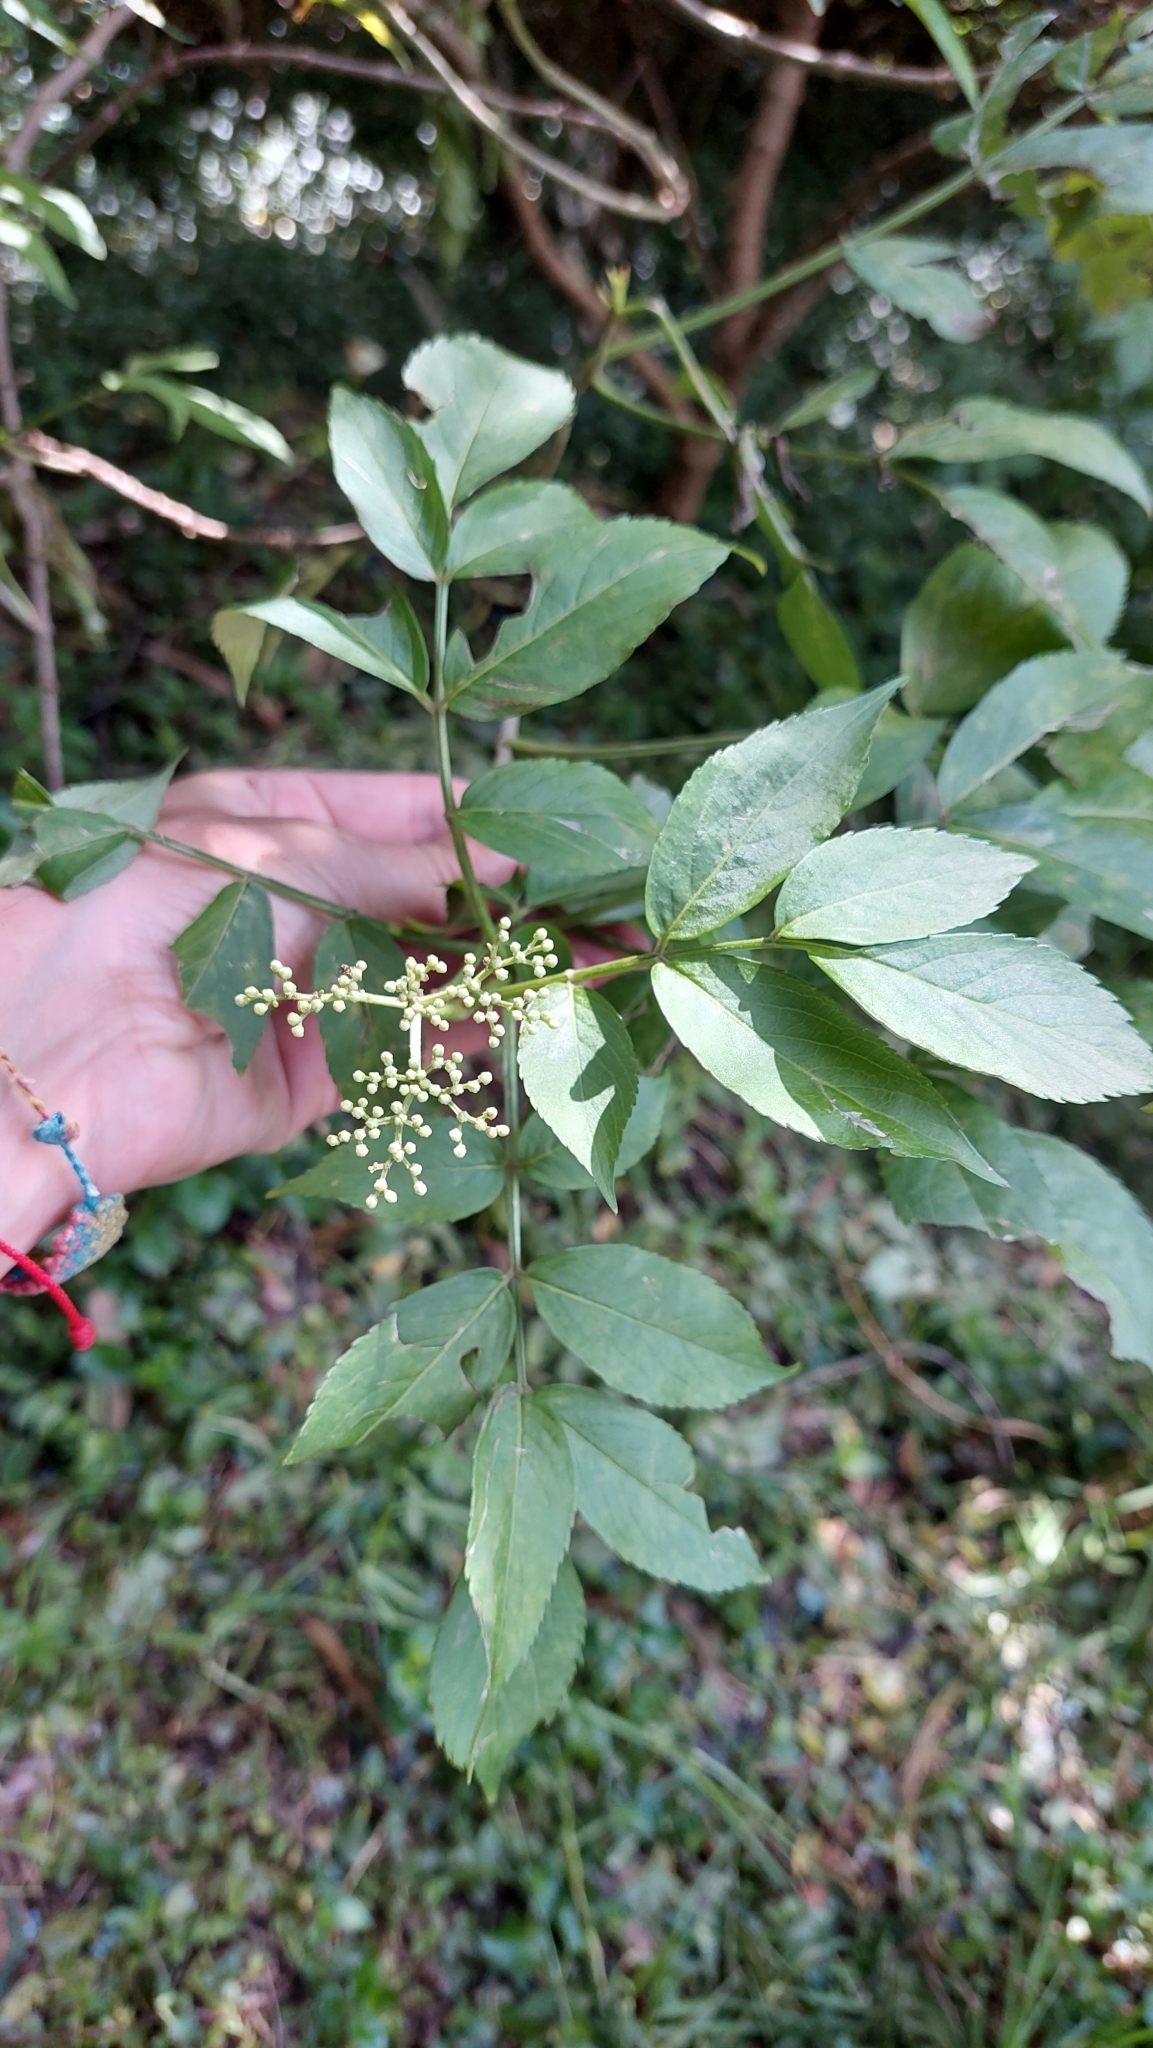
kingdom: Plantae
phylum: Tracheophyta
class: Magnoliopsida
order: Dipsacales
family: Viburnaceae
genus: Sambucus
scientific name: Sambucus nigra
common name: Elder
